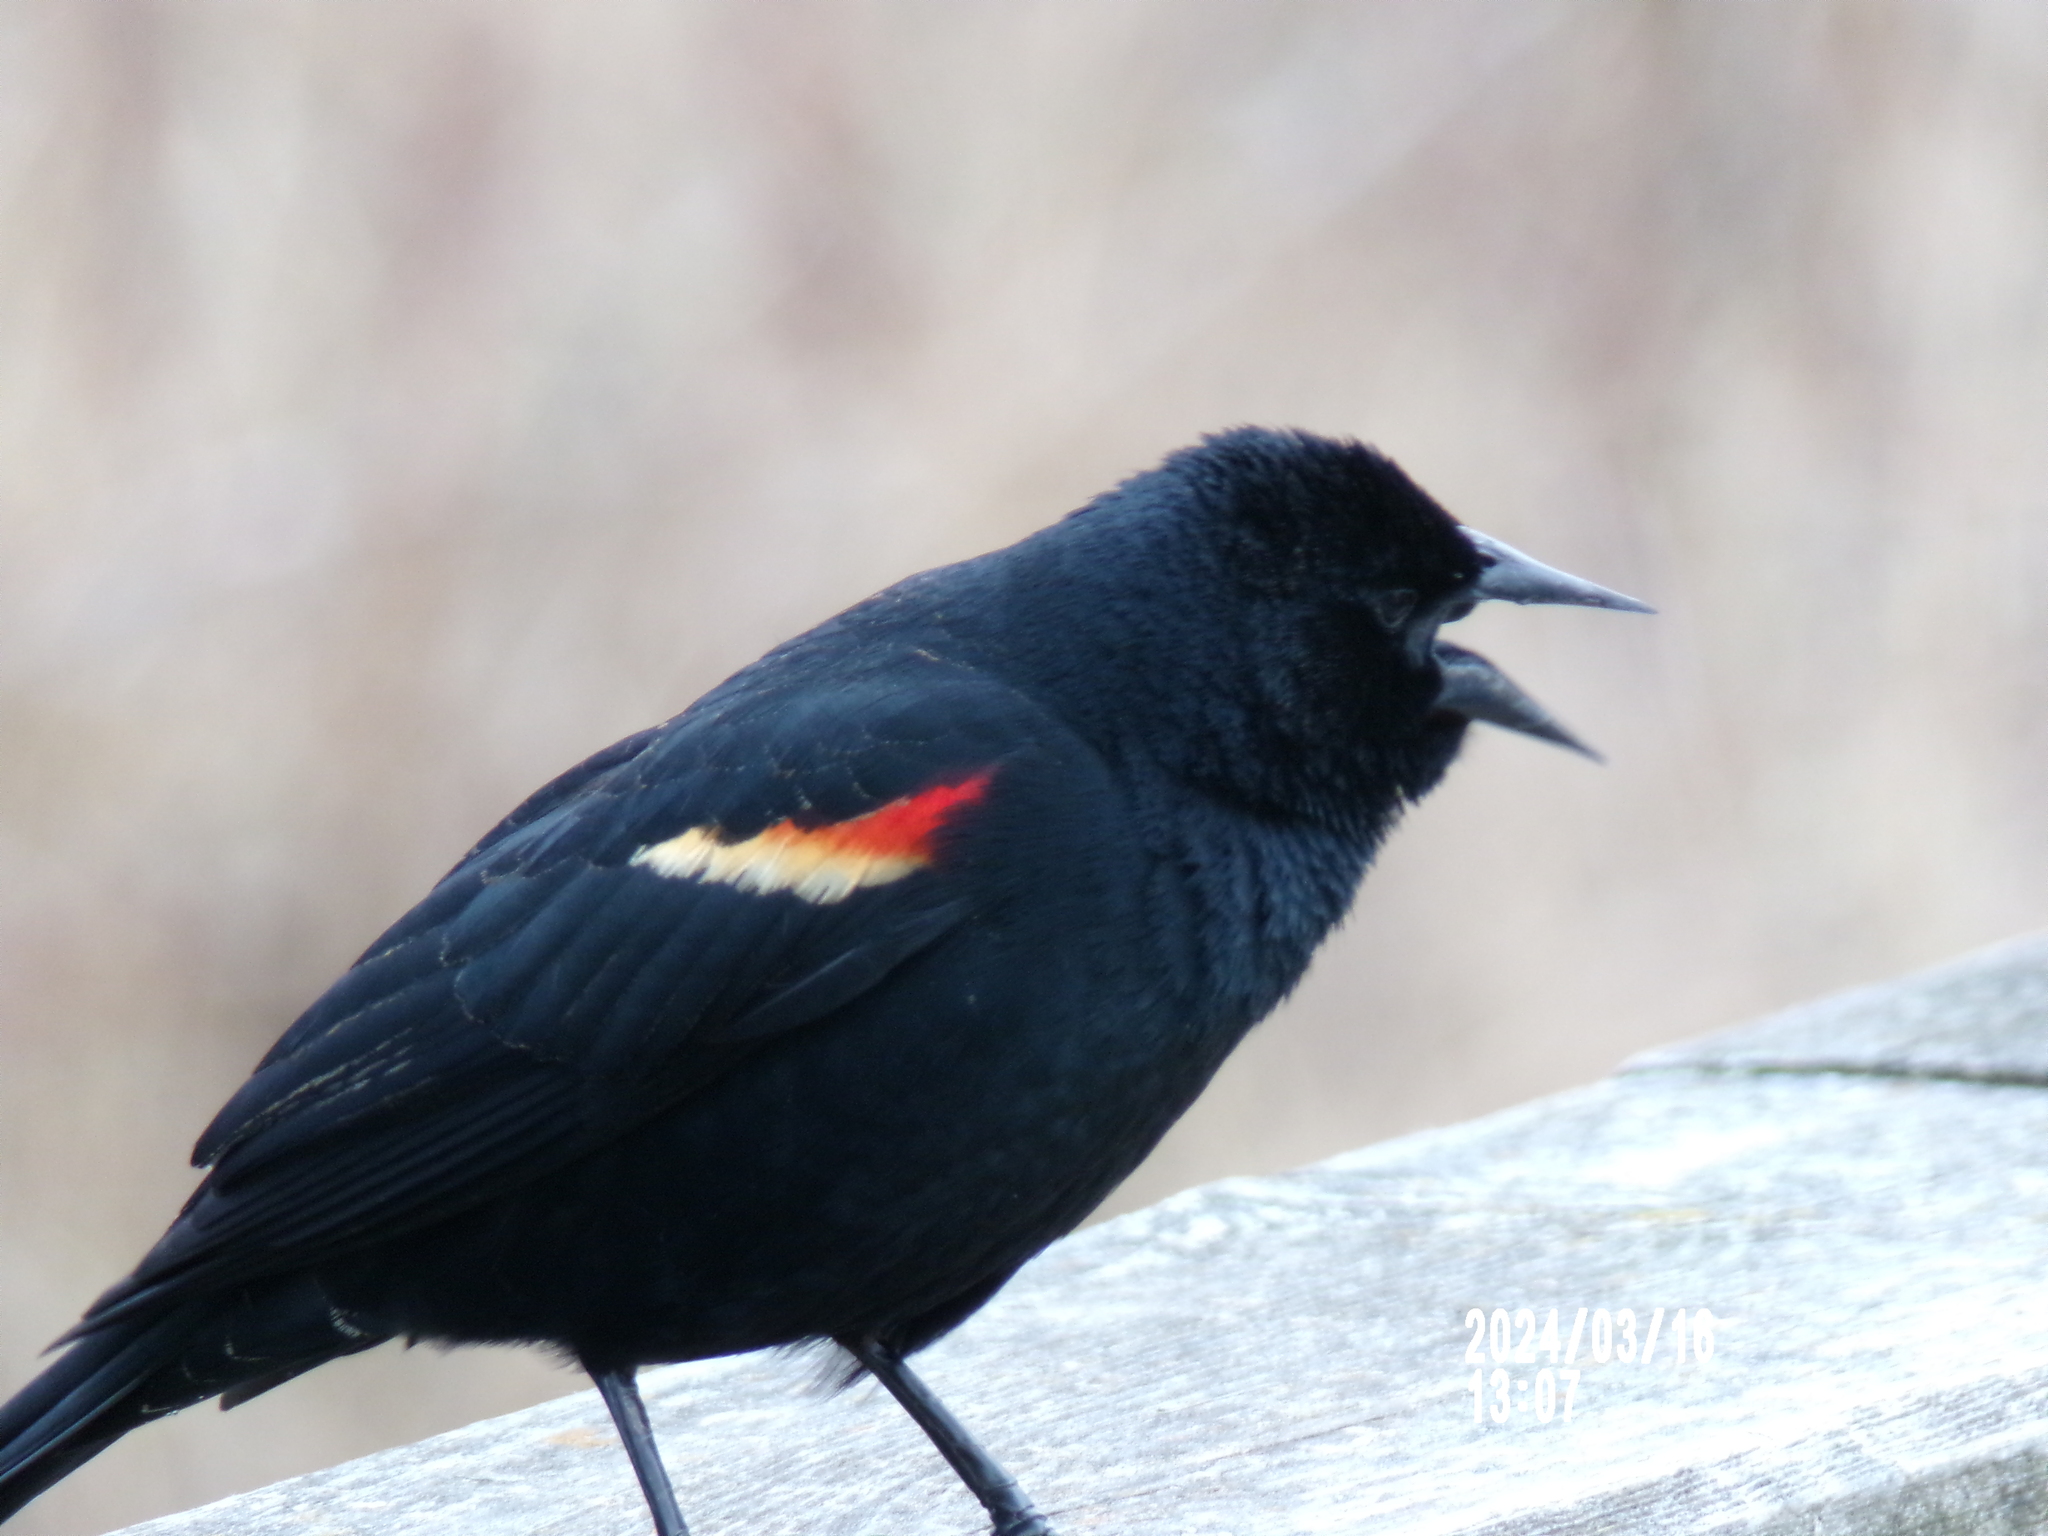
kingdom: Animalia
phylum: Chordata
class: Aves
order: Passeriformes
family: Icteridae
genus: Agelaius
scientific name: Agelaius phoeniceus
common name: Red-winged blackbird
